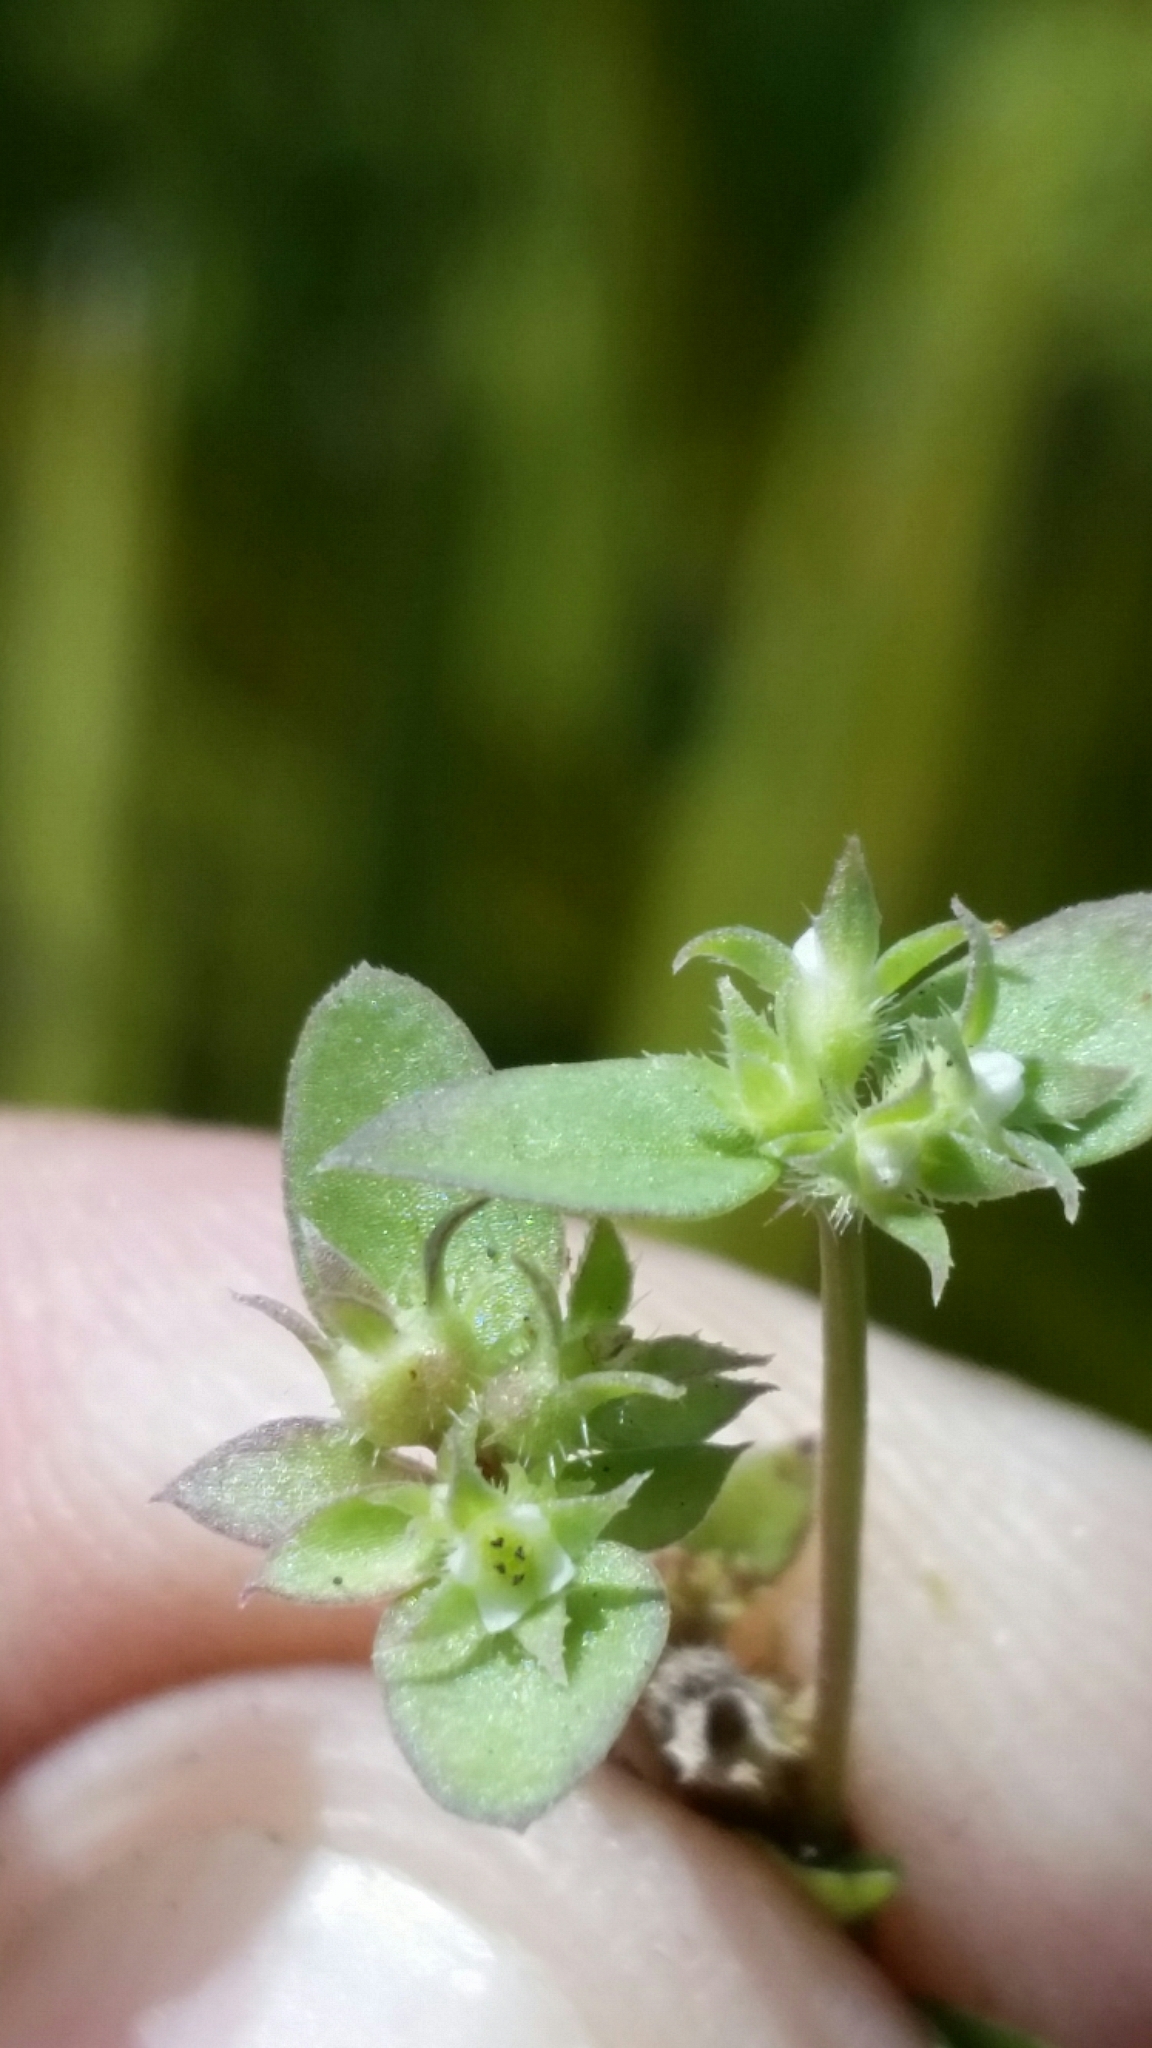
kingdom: Plantae
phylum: Tracheophyta
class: Magnoliopsida
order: Gentianales
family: Rubiaceae
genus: Edrastima
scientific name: Edrastima uniflora
